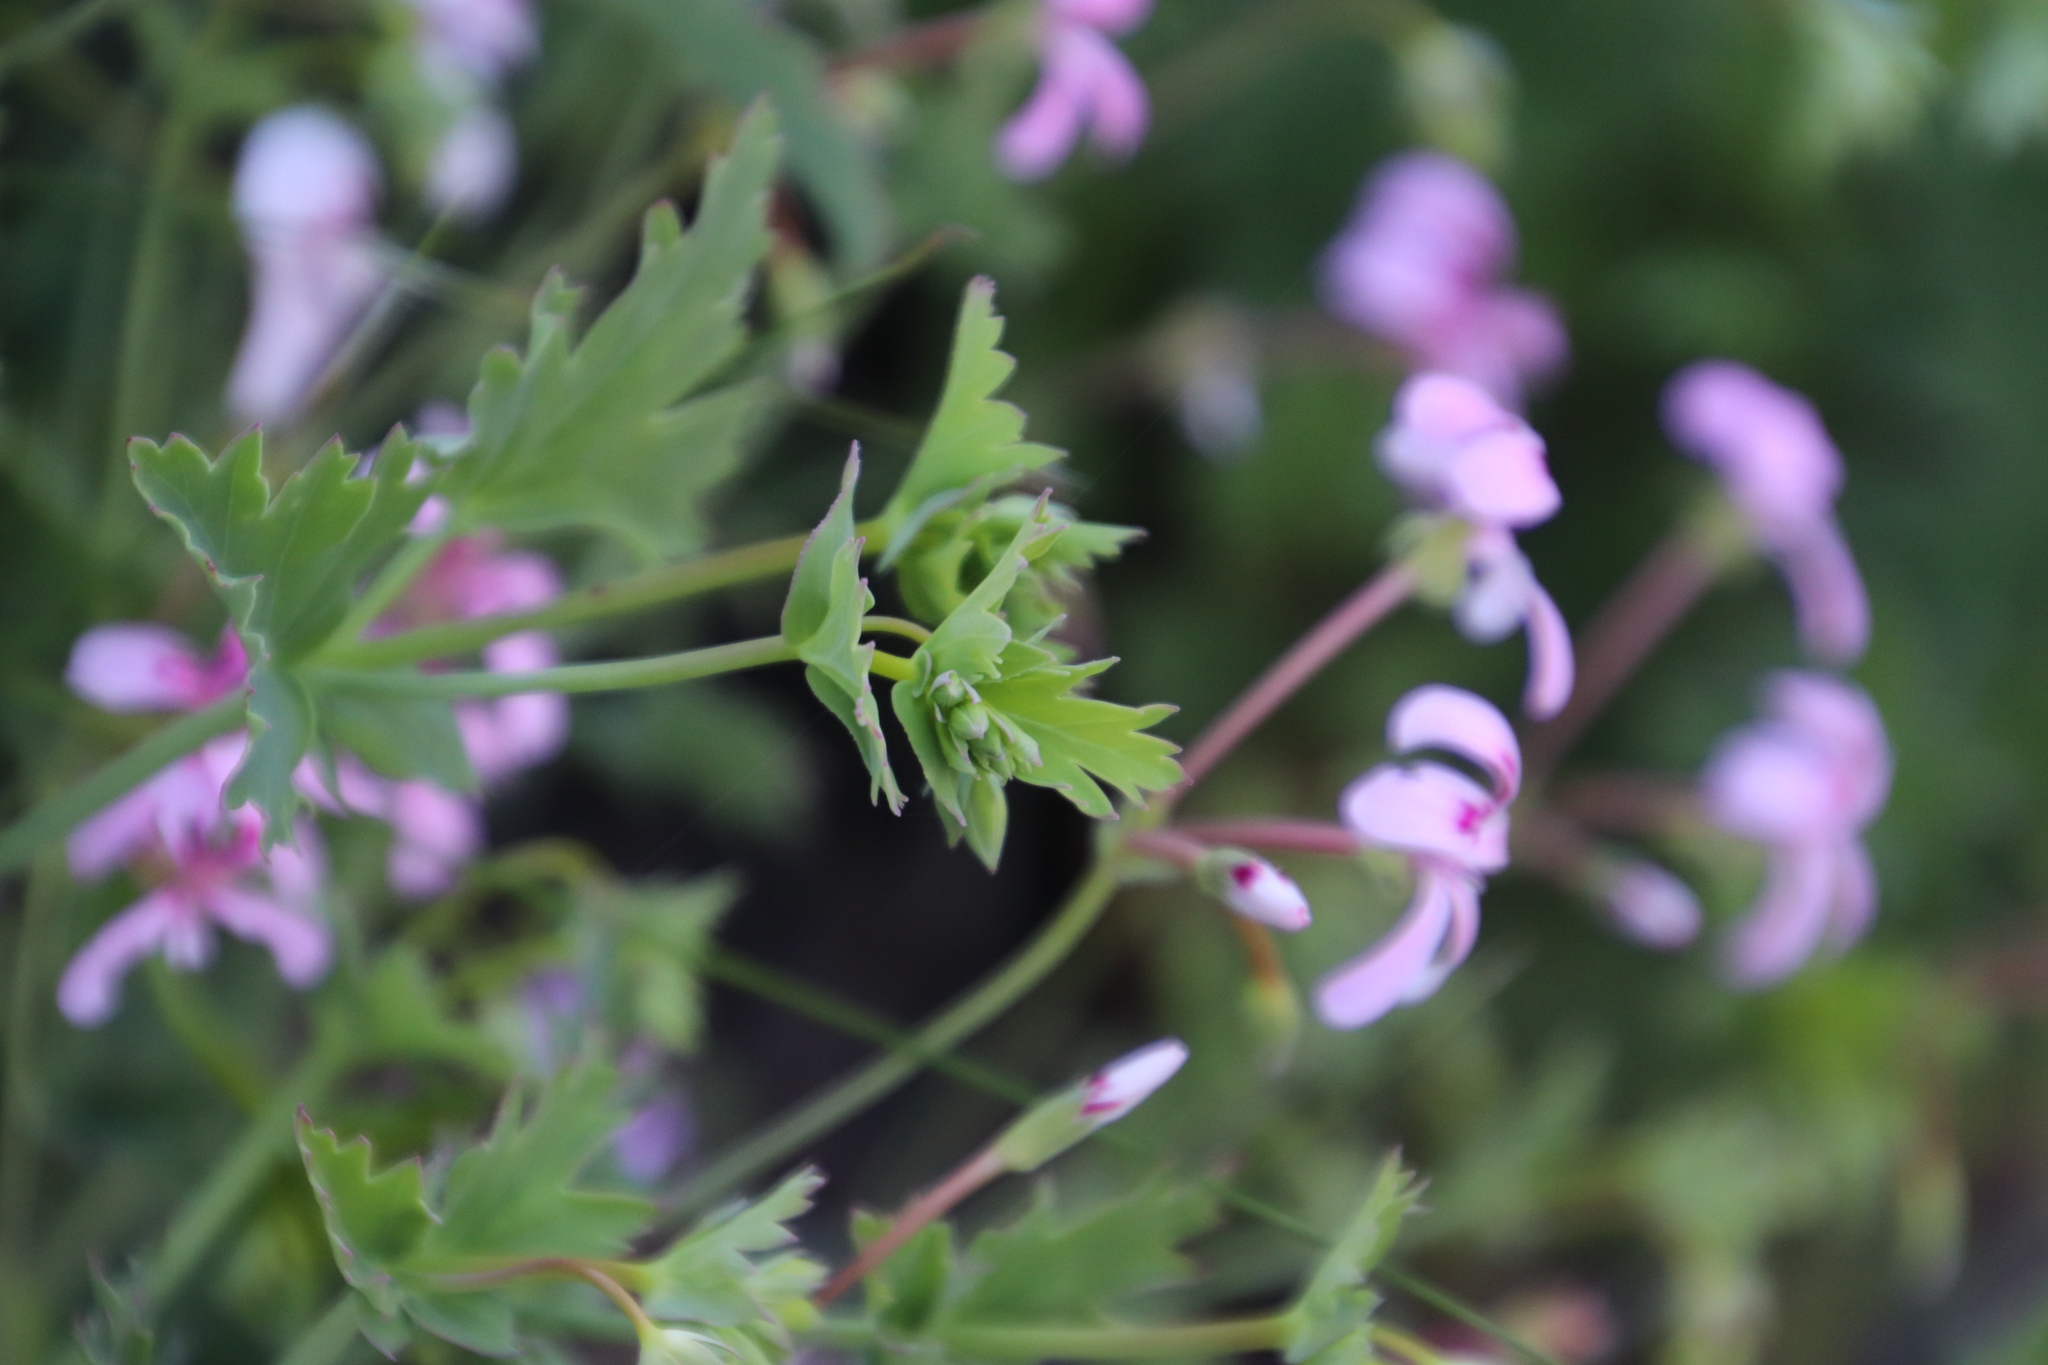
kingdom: Plantae
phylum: Tracheophyta
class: Magnoliopsida
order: Geraniales
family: Geraniaceae
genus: Pelargonium
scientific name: Pelargonium patulum
